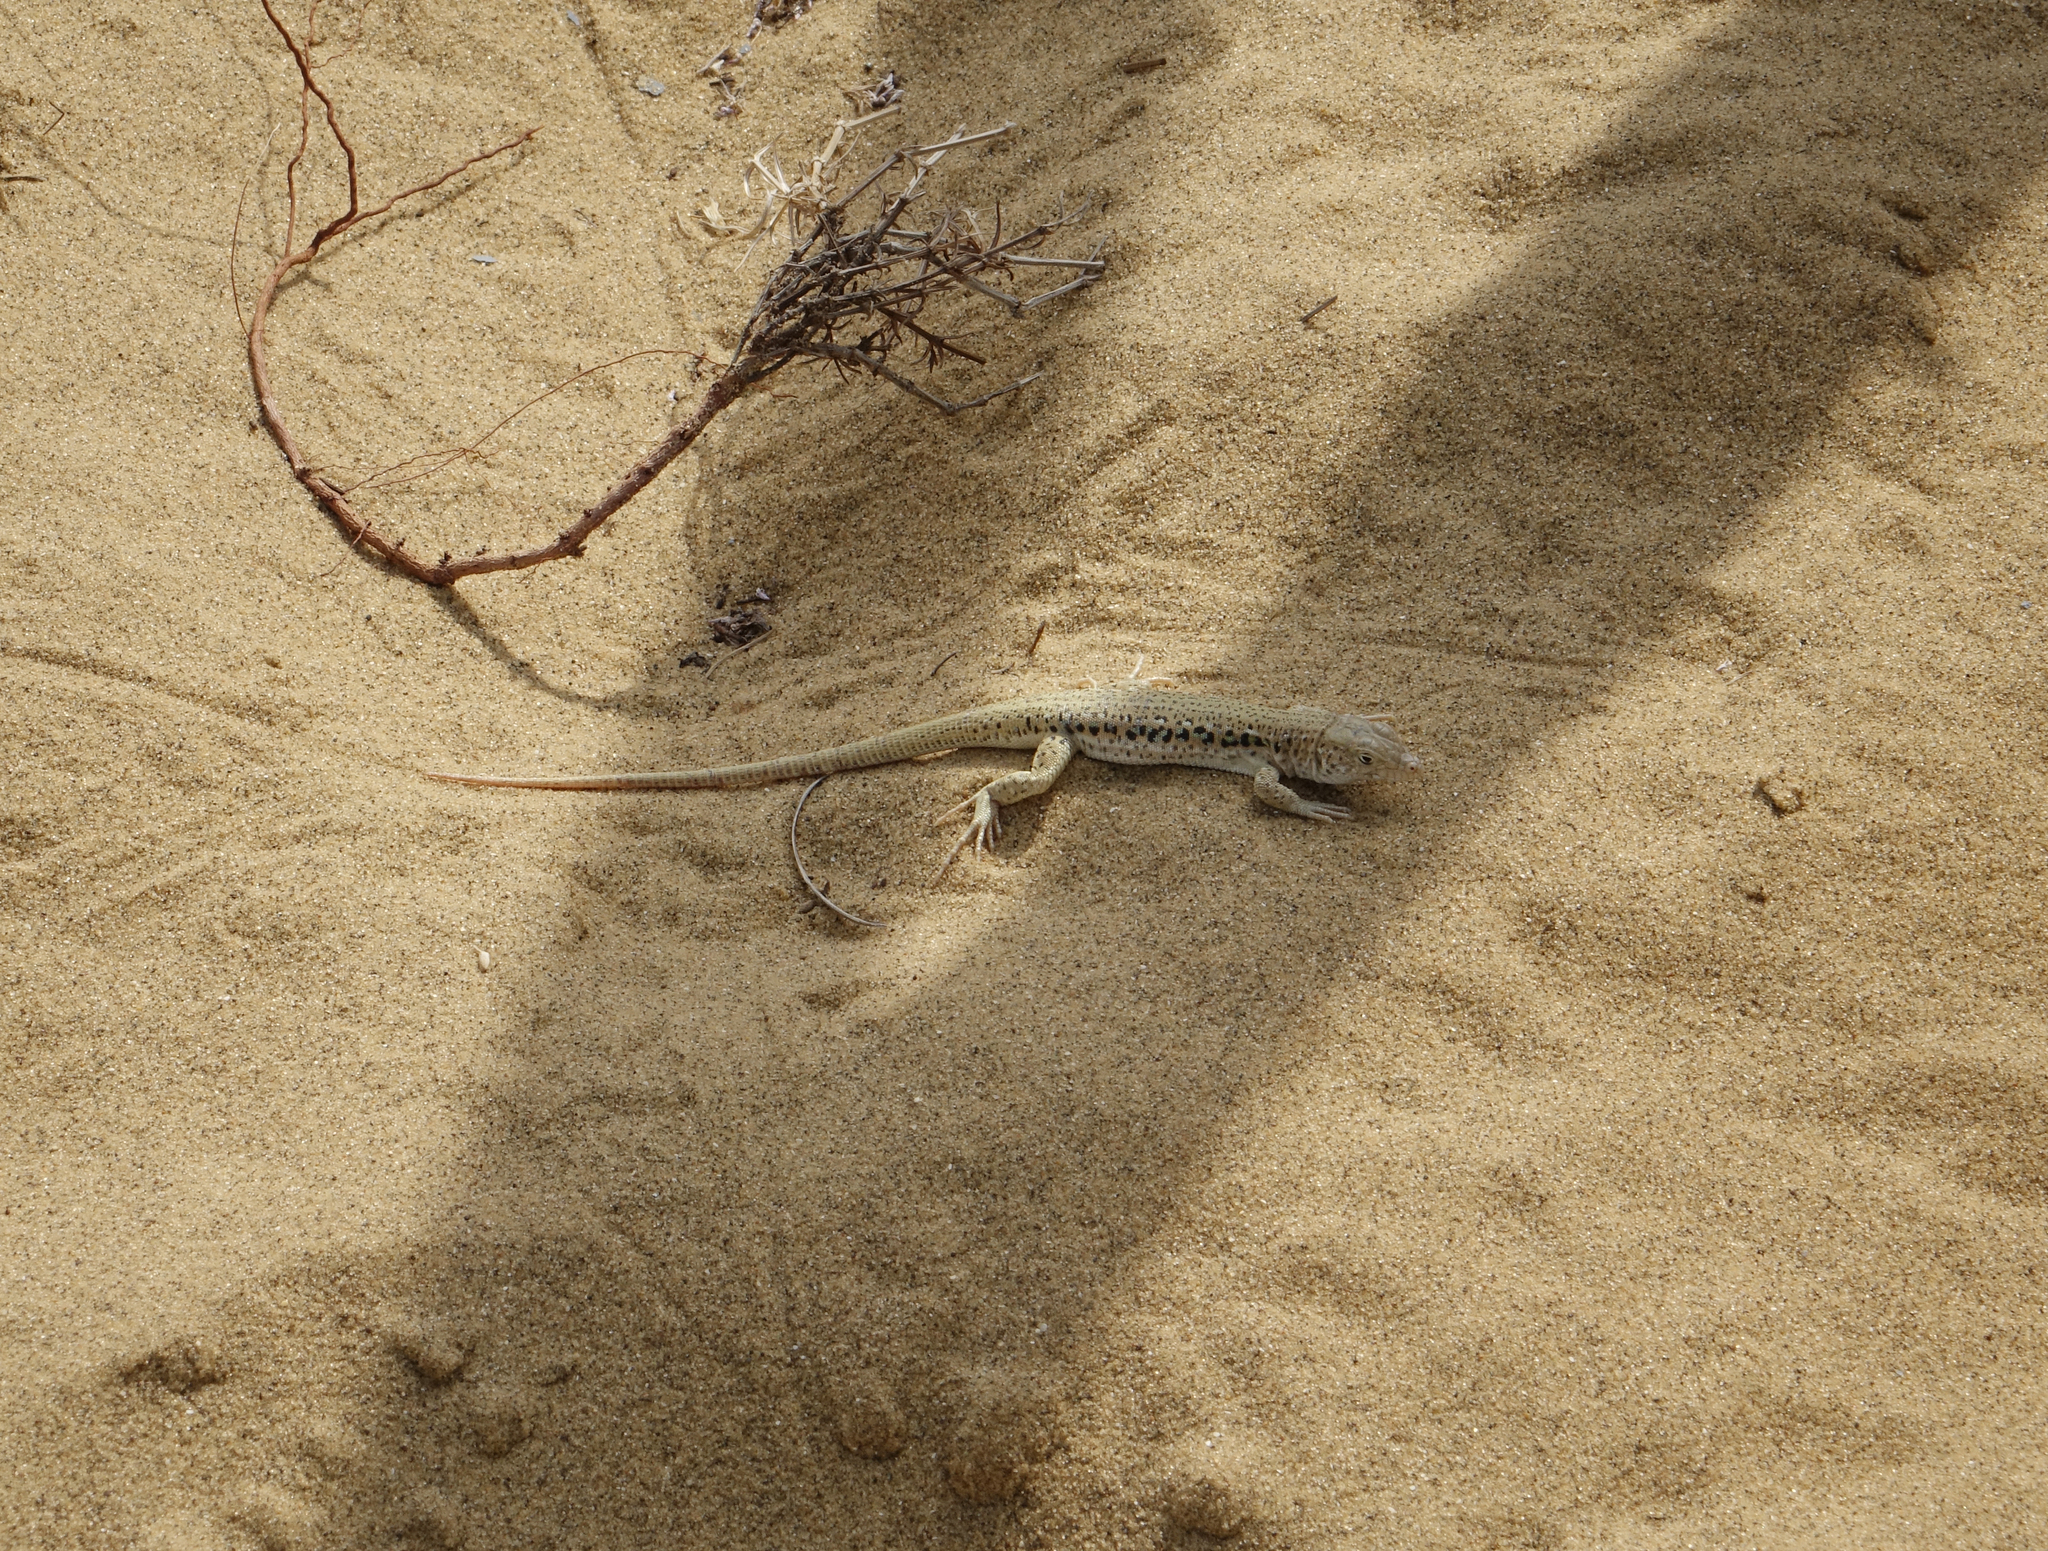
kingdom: Animalia
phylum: Chordata
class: Squamata
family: Lacertidae
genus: Eremias
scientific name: Eremias velox
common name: Central asian racerunner
